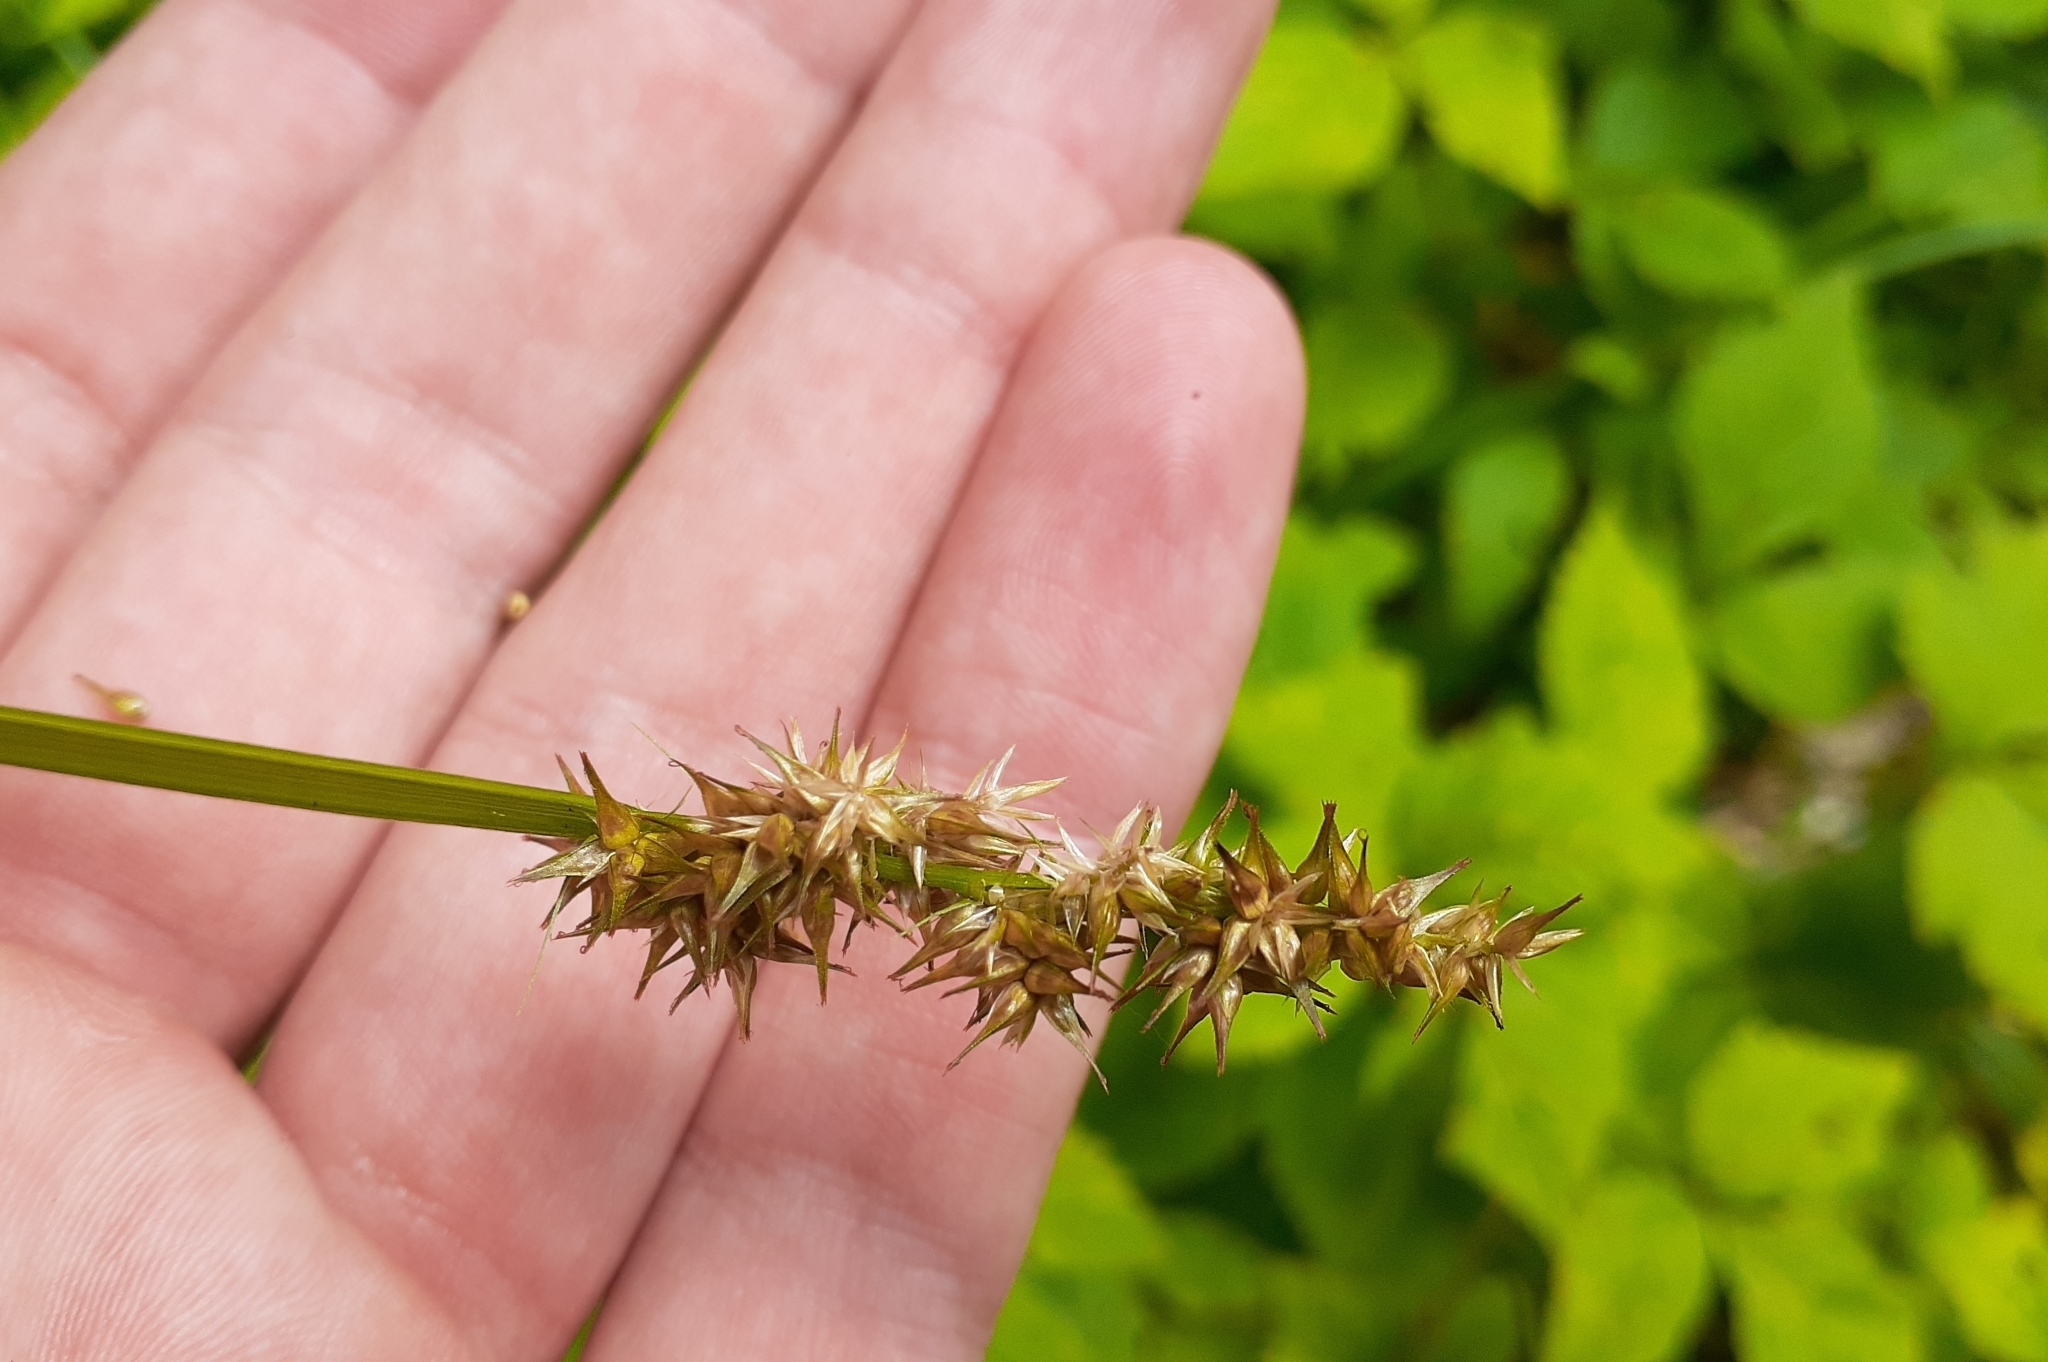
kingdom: Plantae
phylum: Tracheophyta
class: Liliopsida
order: Poales
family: Cyperaceae
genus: Carex
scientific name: Carex stipata
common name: Awl-fruited sedge
